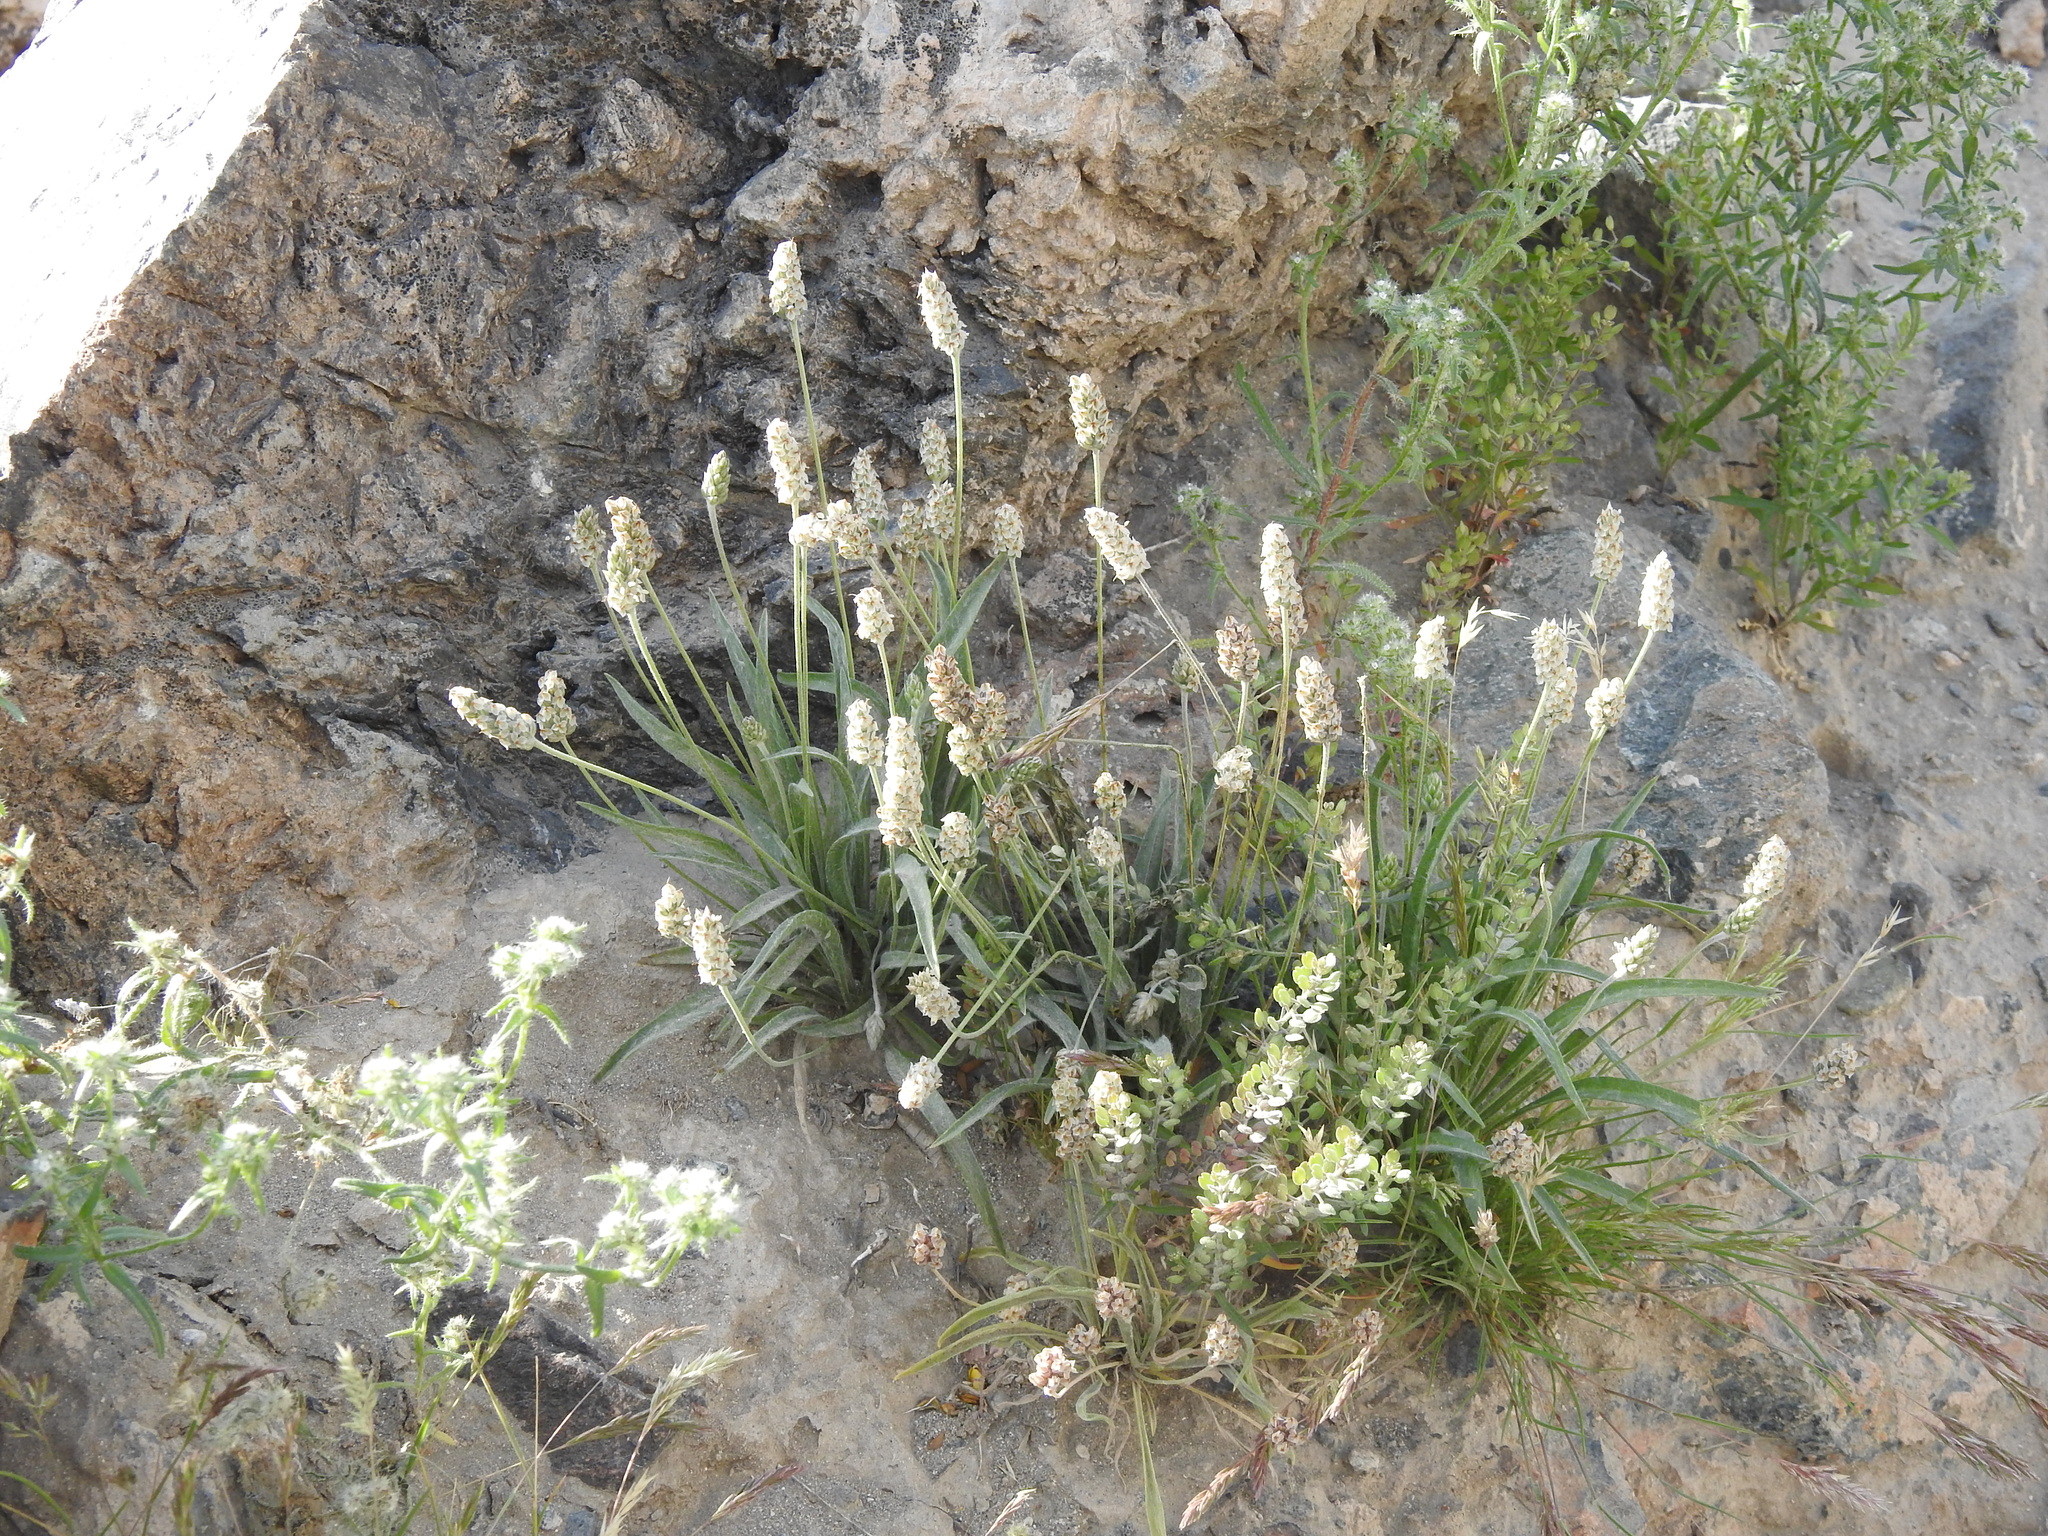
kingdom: Plantae
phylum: Tracheophyta
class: Magnoliopsida
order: Lamiales
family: Plantaginaceae
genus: Plantago
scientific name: Plantago ovata
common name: Blond plantain
